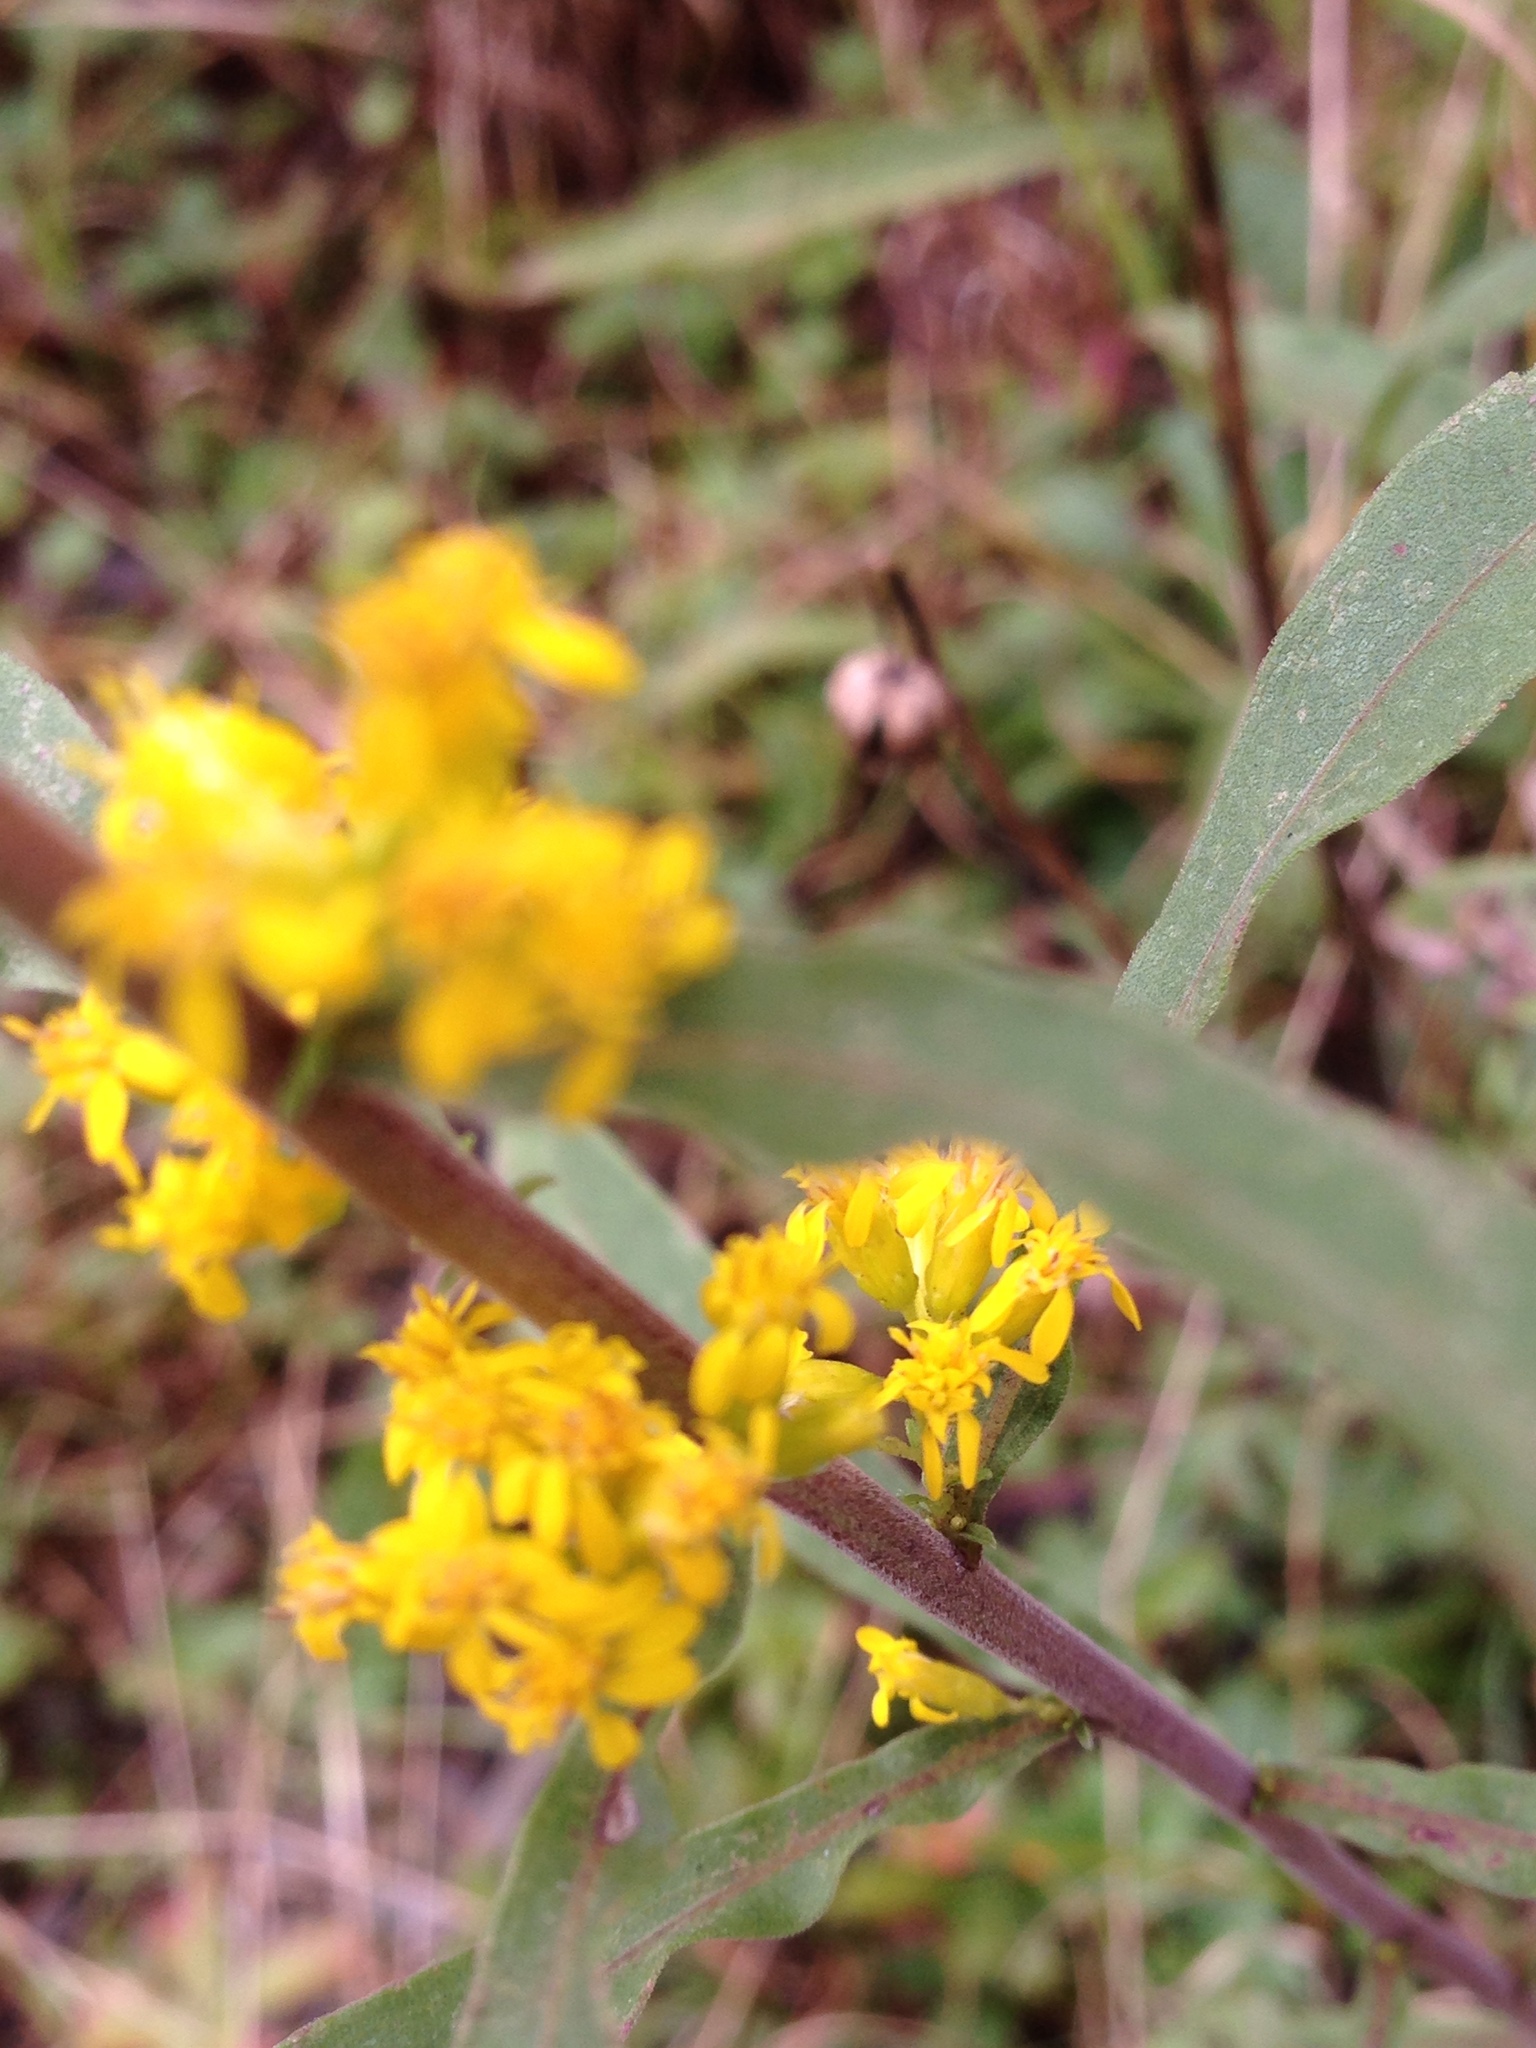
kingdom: Plantae
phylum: Tracheophyta
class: Magnoliopsida
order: Asterales
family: Asteraceae
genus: Solidago
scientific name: Solidago nemoralis
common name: Grey goldenrod
